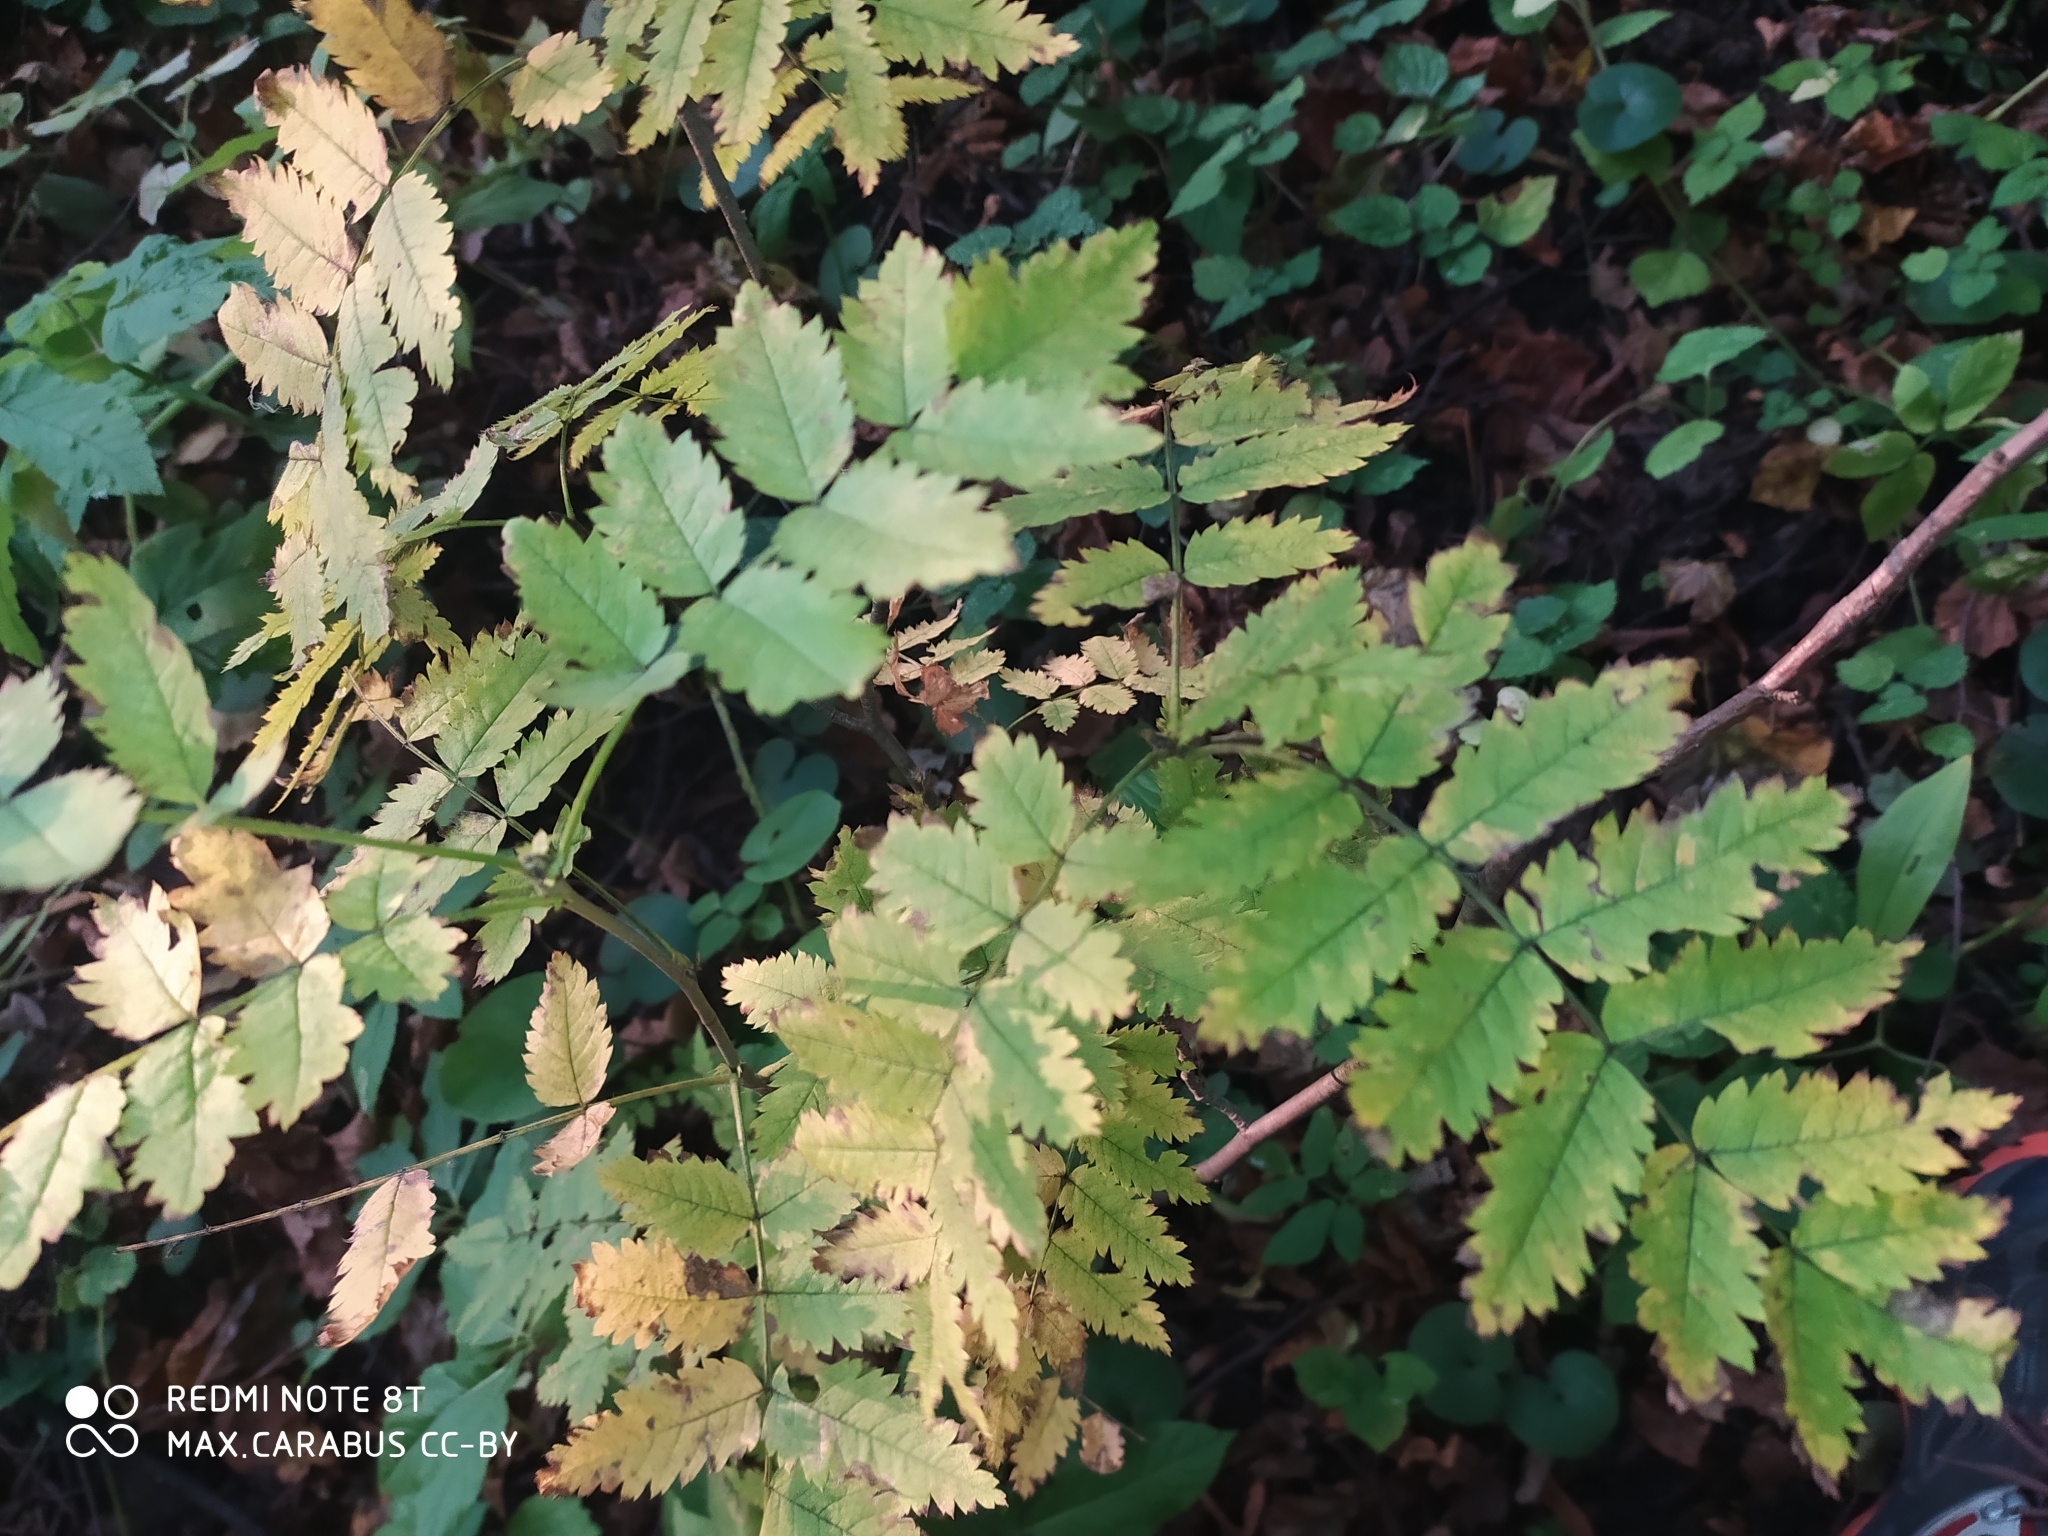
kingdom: Plantae
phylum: Tracheophyta
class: Magnoliopsida
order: Rosales
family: Rosaceae
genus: Sorbus
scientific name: Sorbus aucuparia
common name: Rowan
